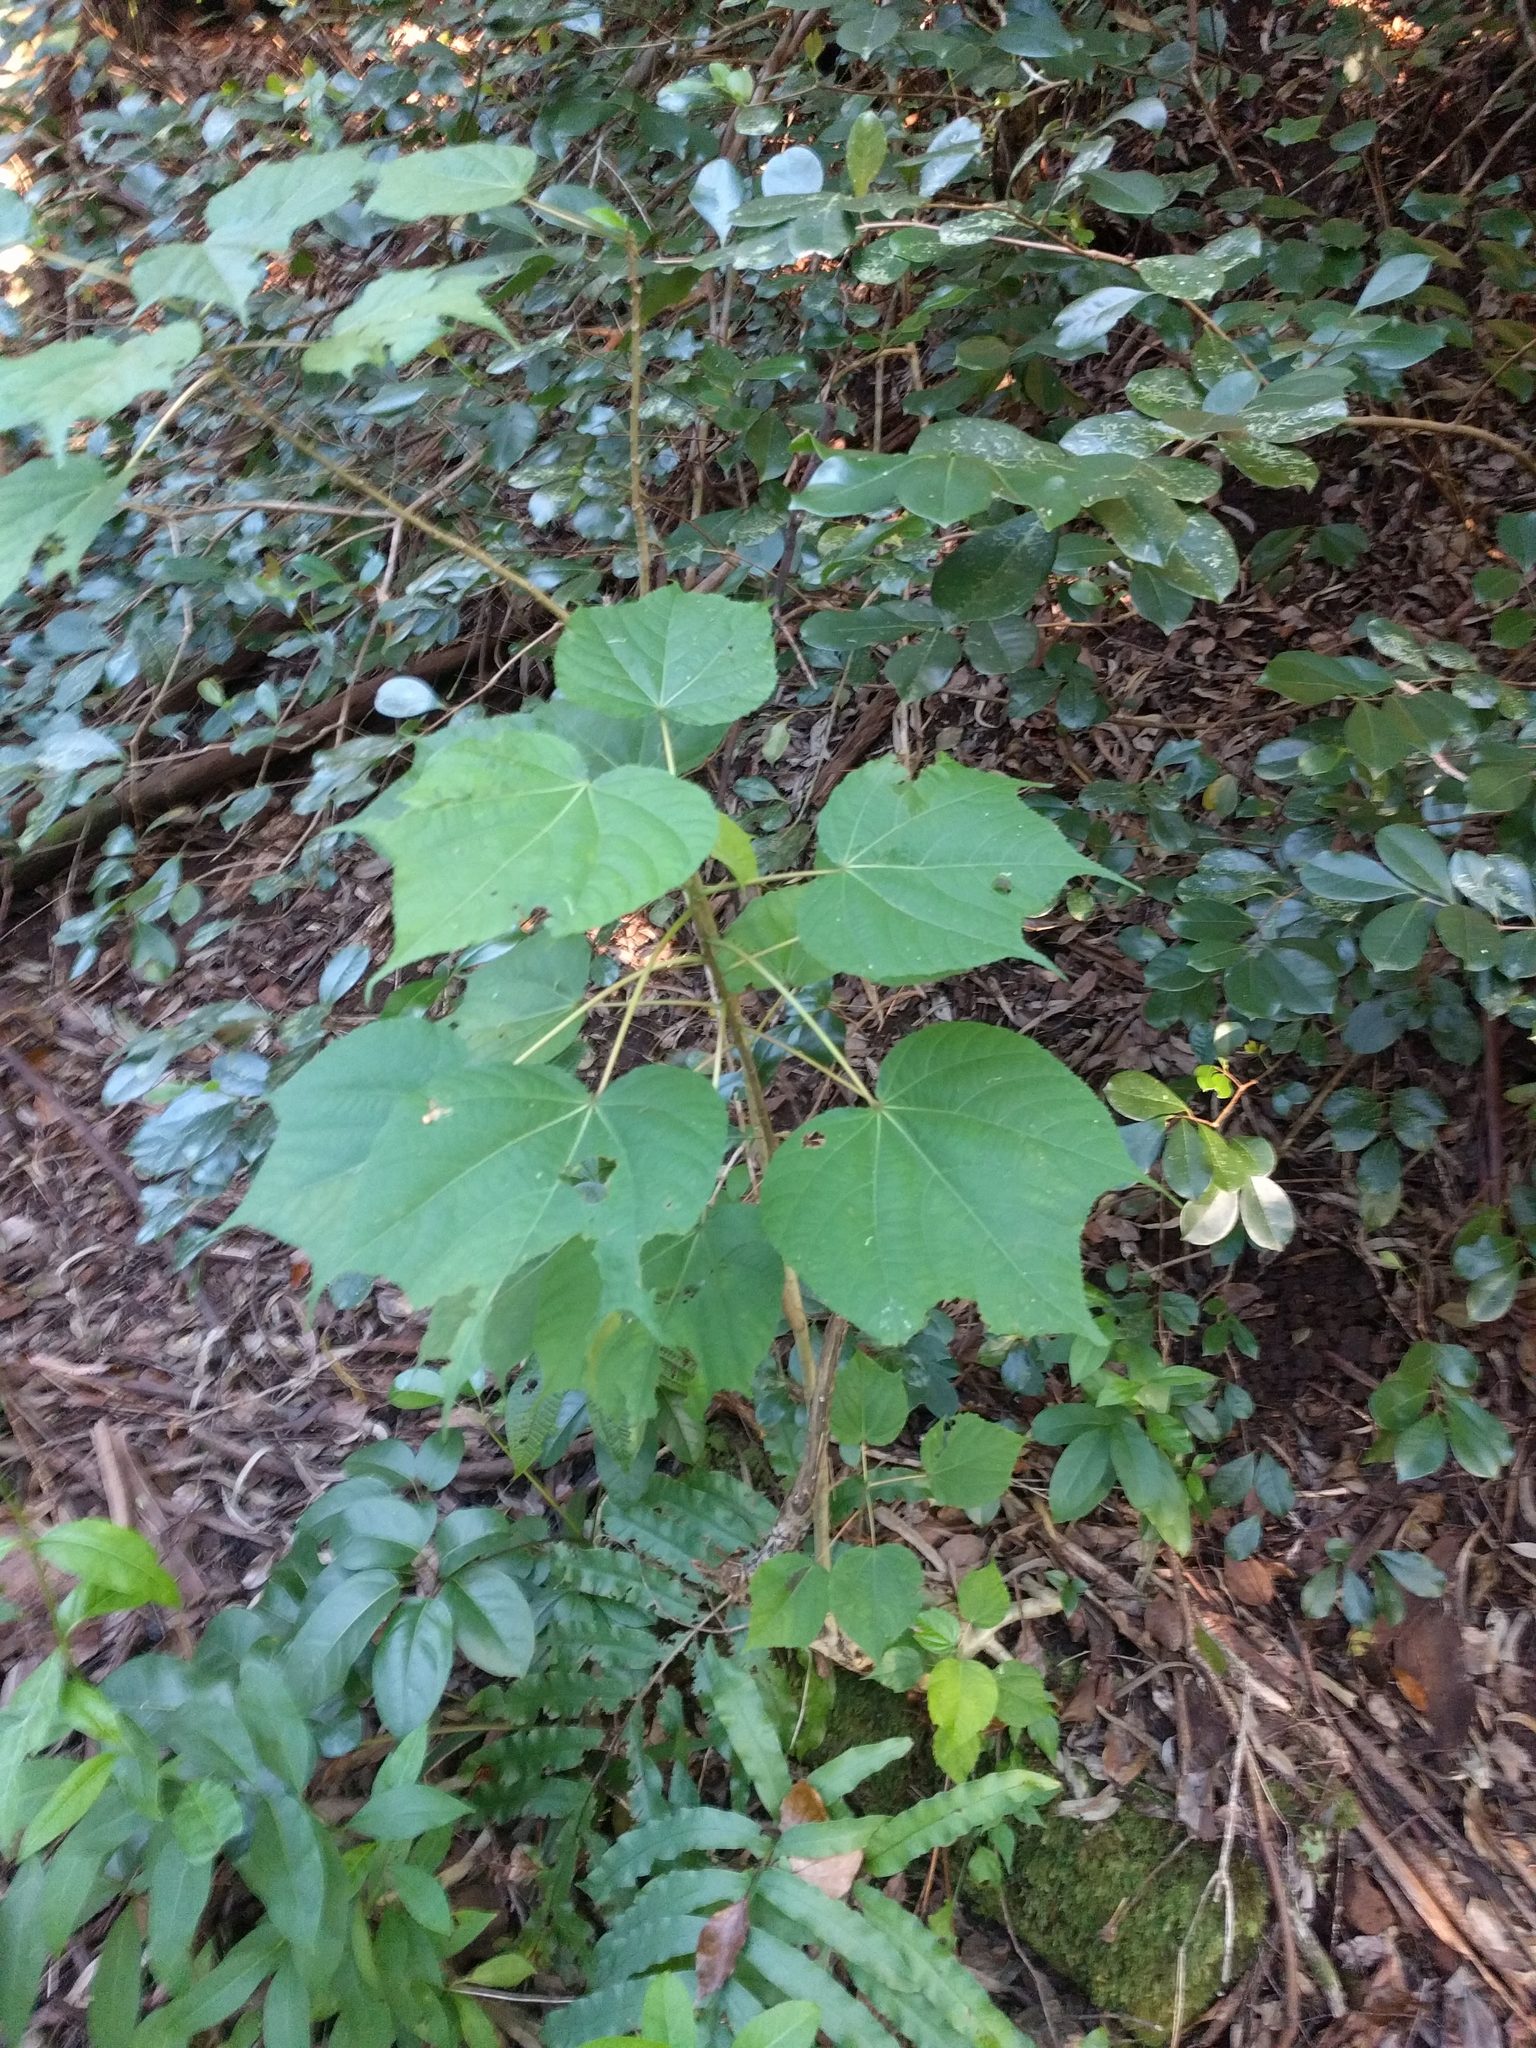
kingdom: Plantae
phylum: Tracheophyta
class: Magnoliopsida
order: Malvales
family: Malvaceae
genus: Heliocarpus
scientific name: Heliocarpus americanus
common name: White moho
